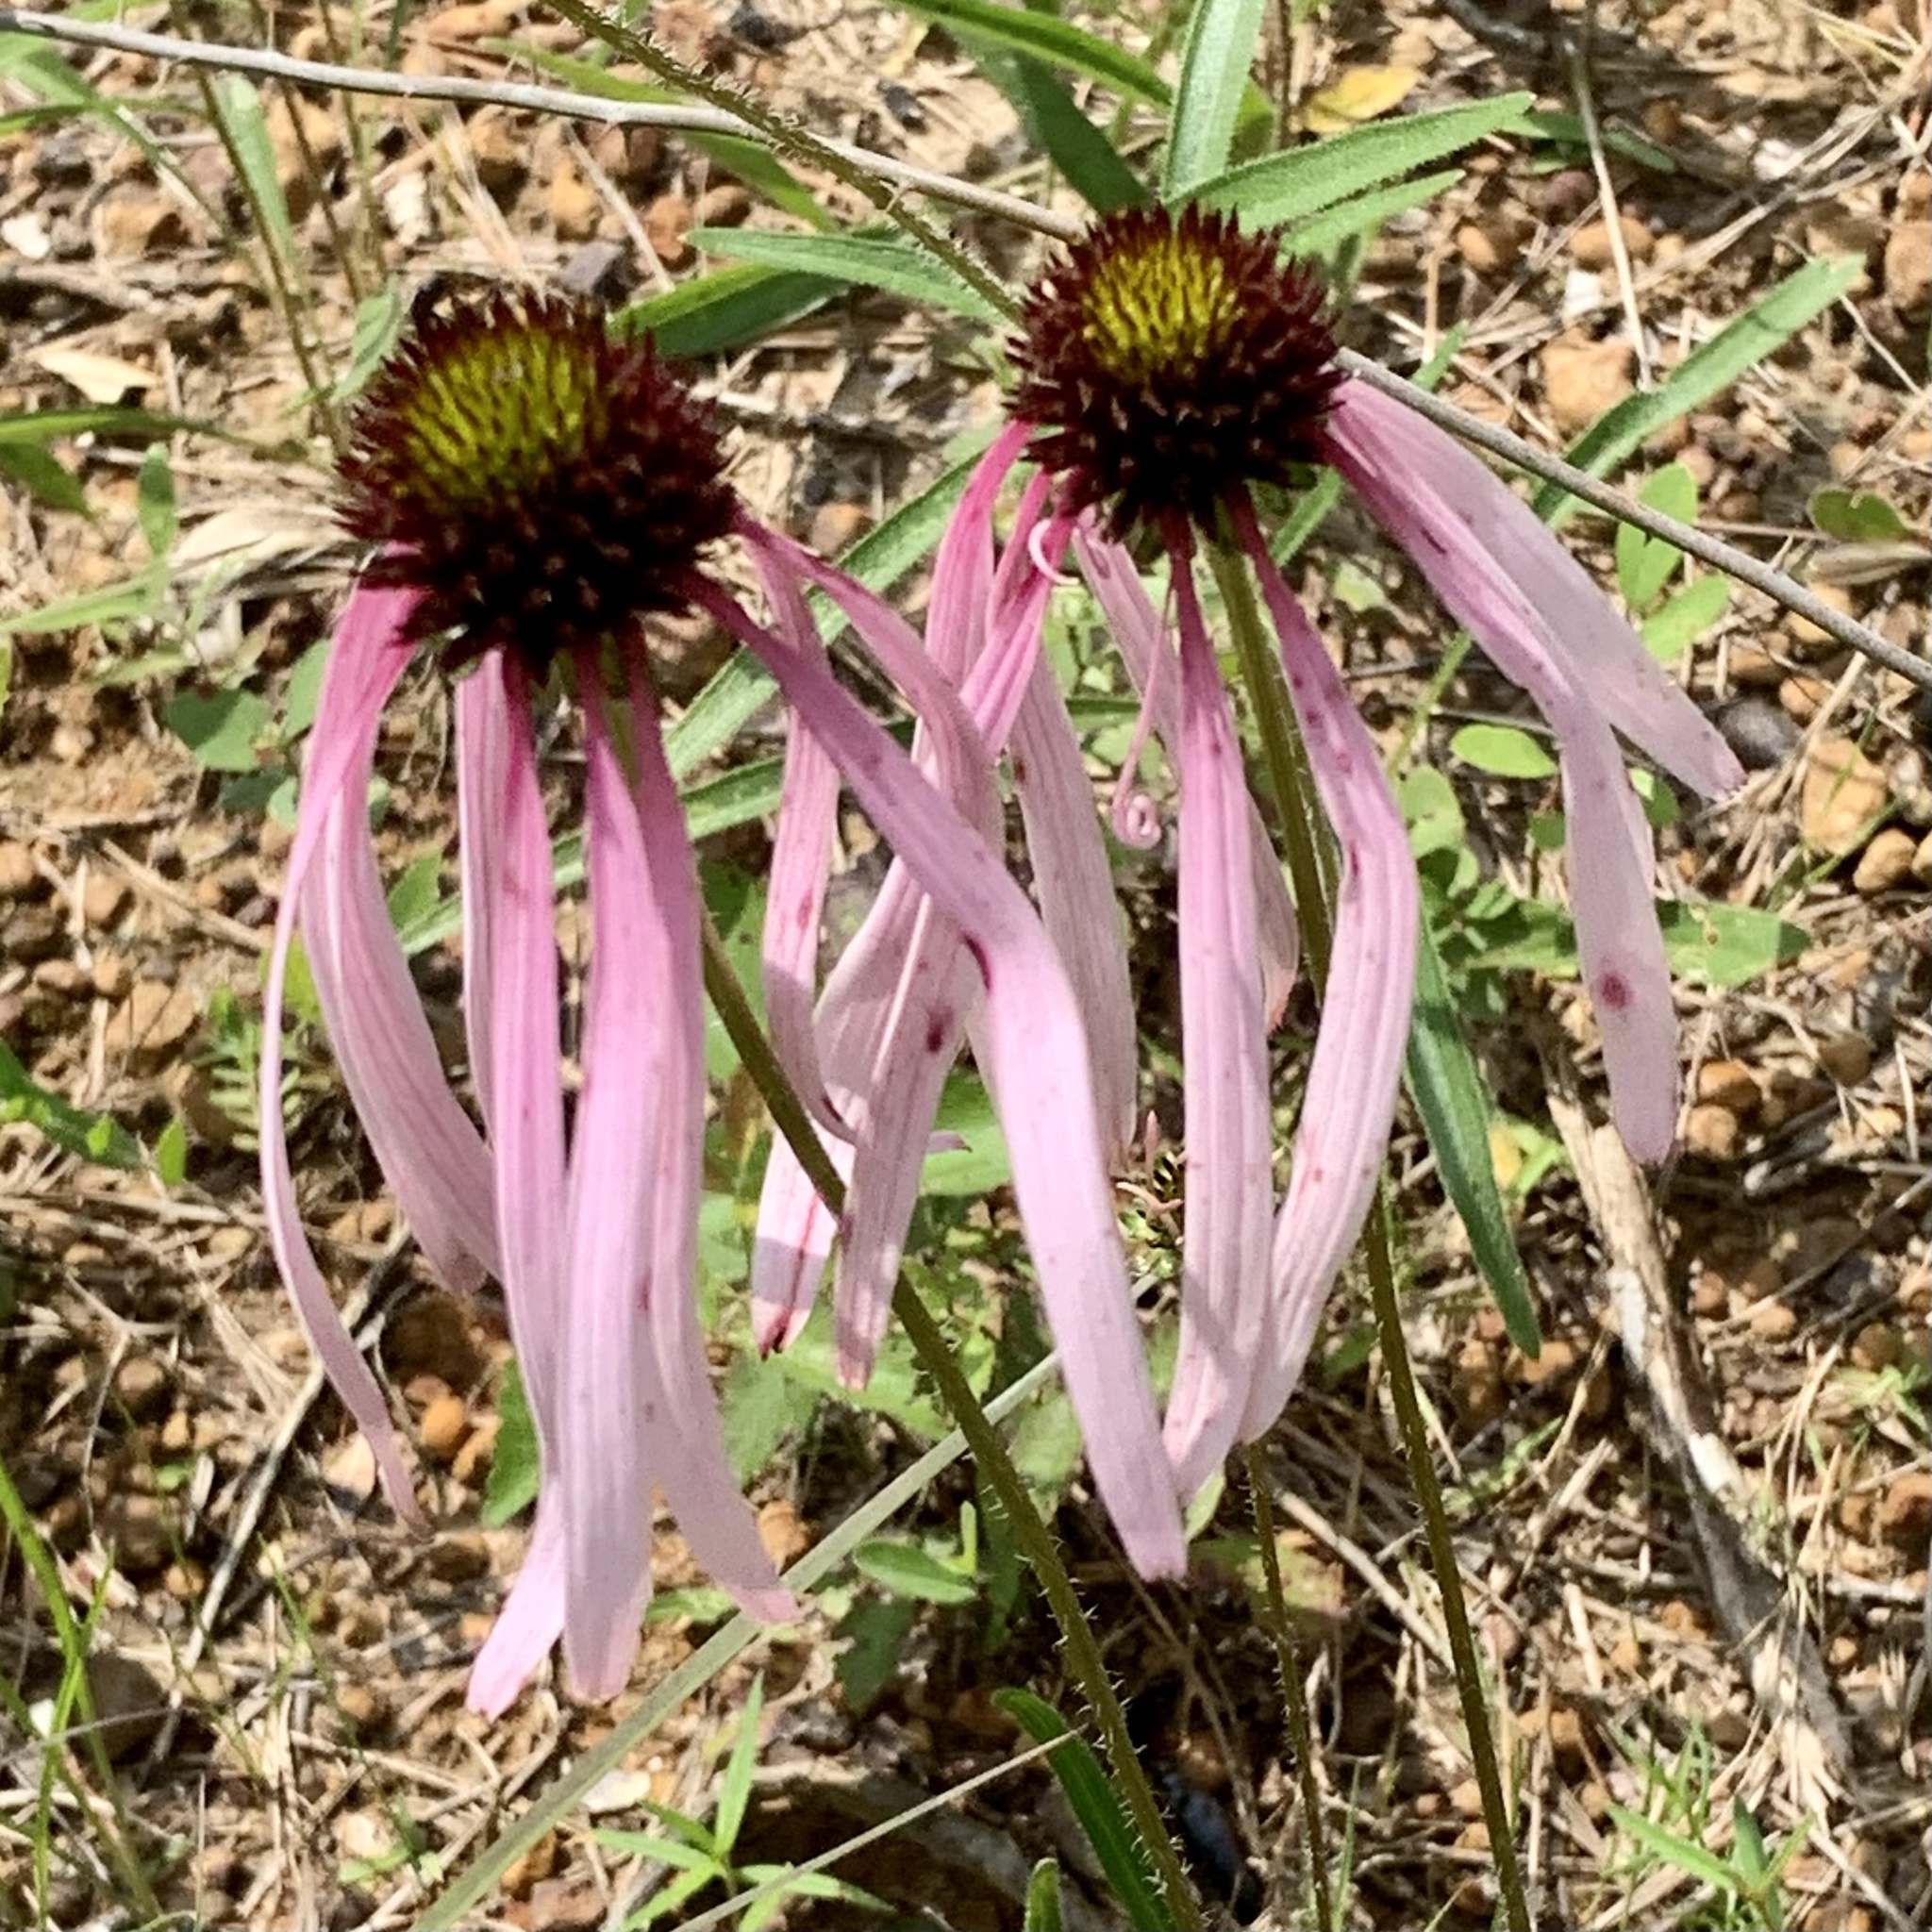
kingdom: Plantae
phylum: Tracheophyta
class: Magnoliopsida
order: Asterales
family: Asteraceae
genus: Echinacea
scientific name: Echinacea sanguinea
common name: Sanguine purple-coneflower
